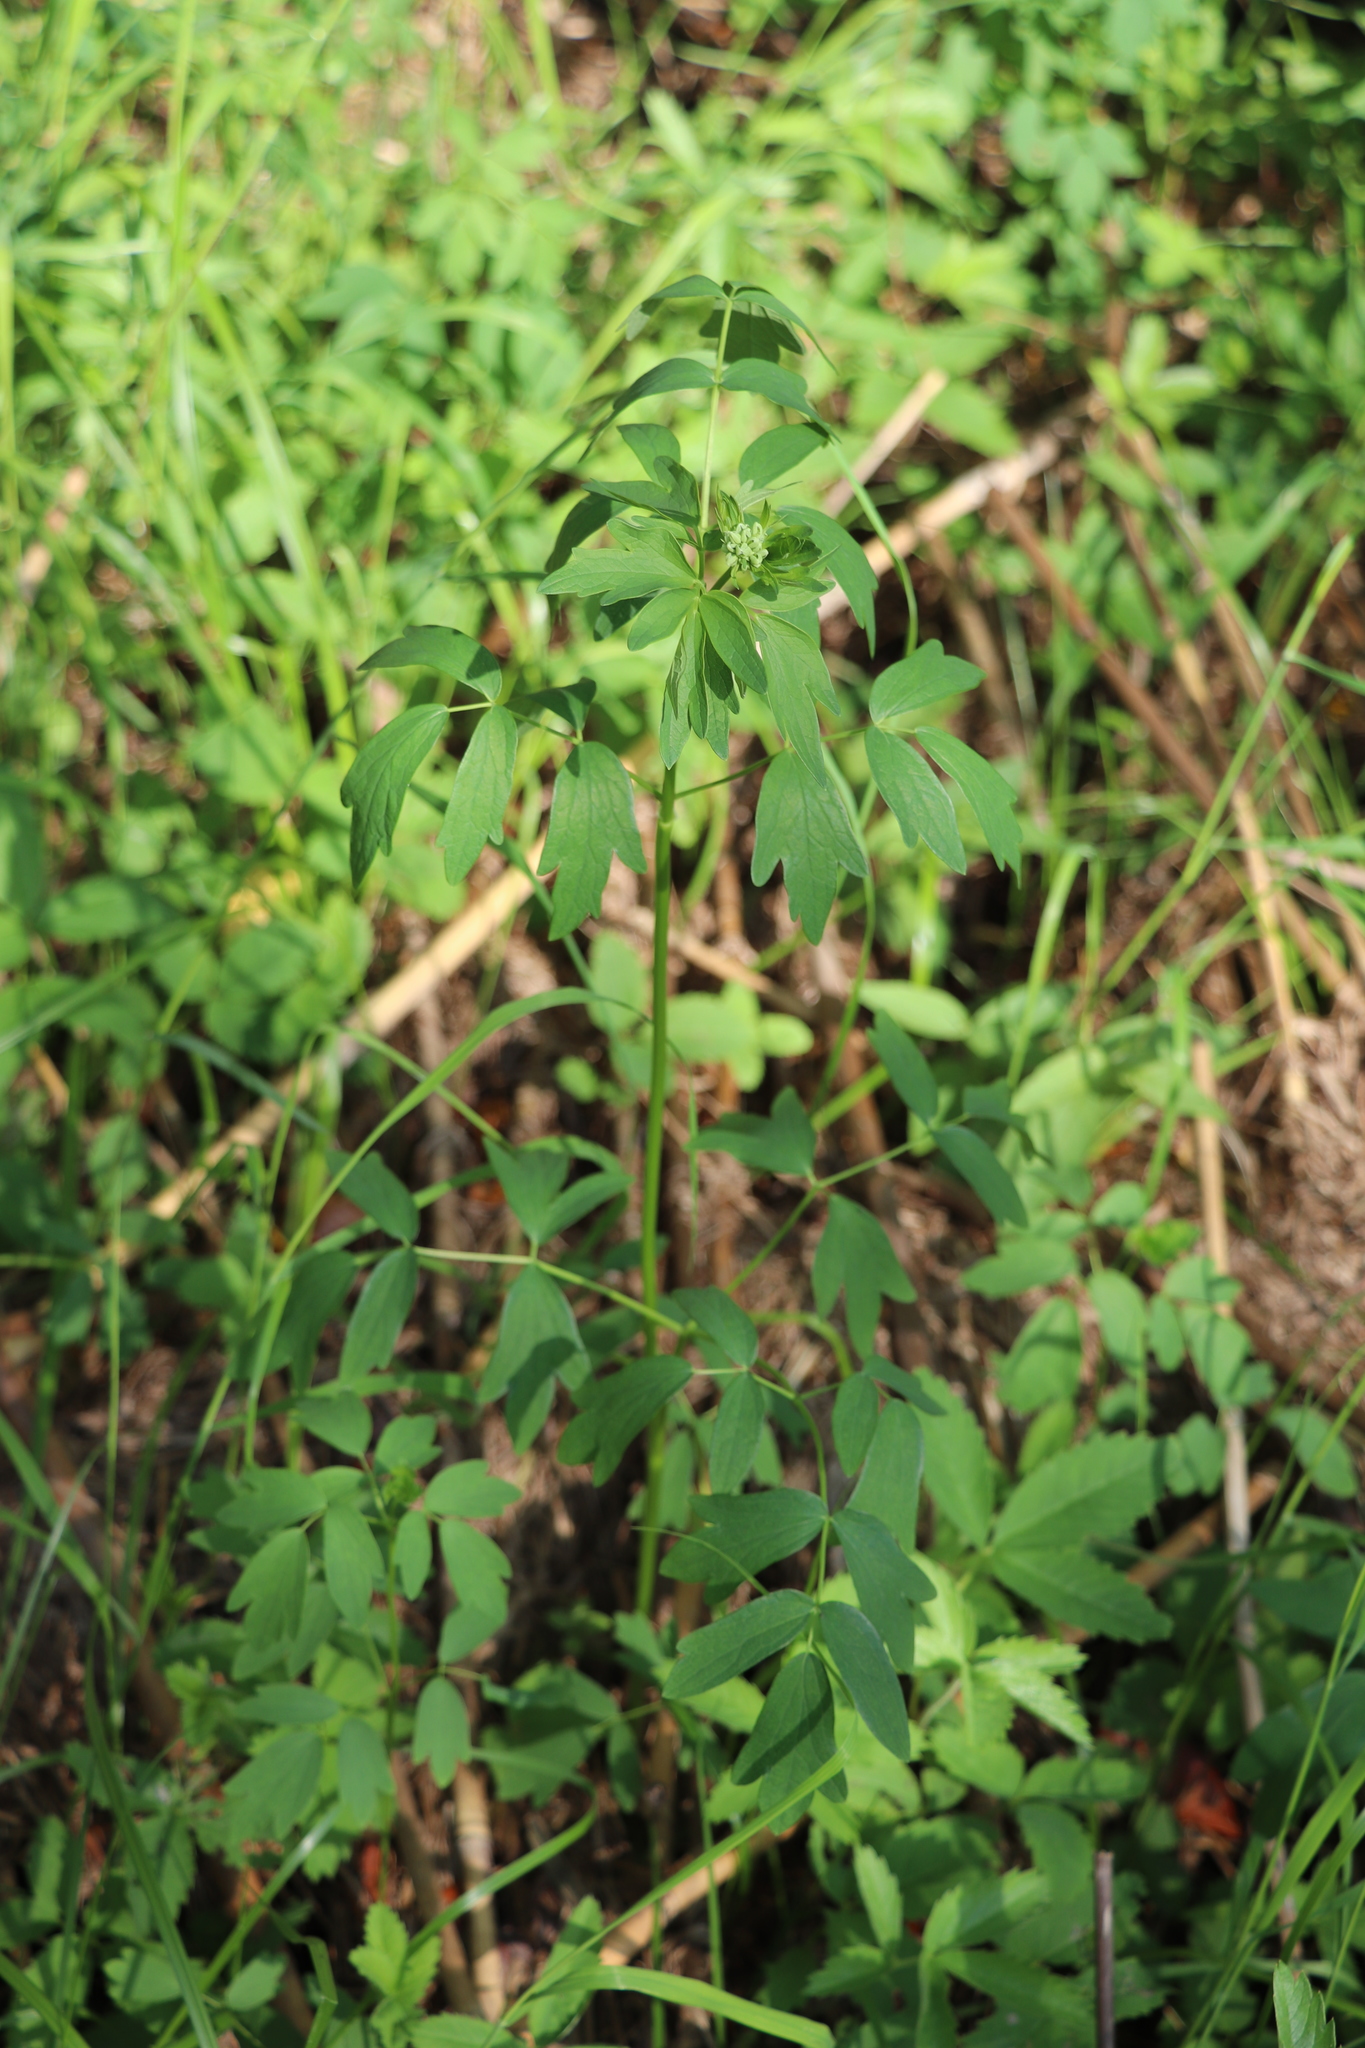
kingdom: Plantae
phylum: Tracheophyta
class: Magnoliopsida
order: Ranunculales
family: Ranunculaceae
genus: Thalictrum
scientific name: Thalictrum simplex
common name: Small meadow-rue
